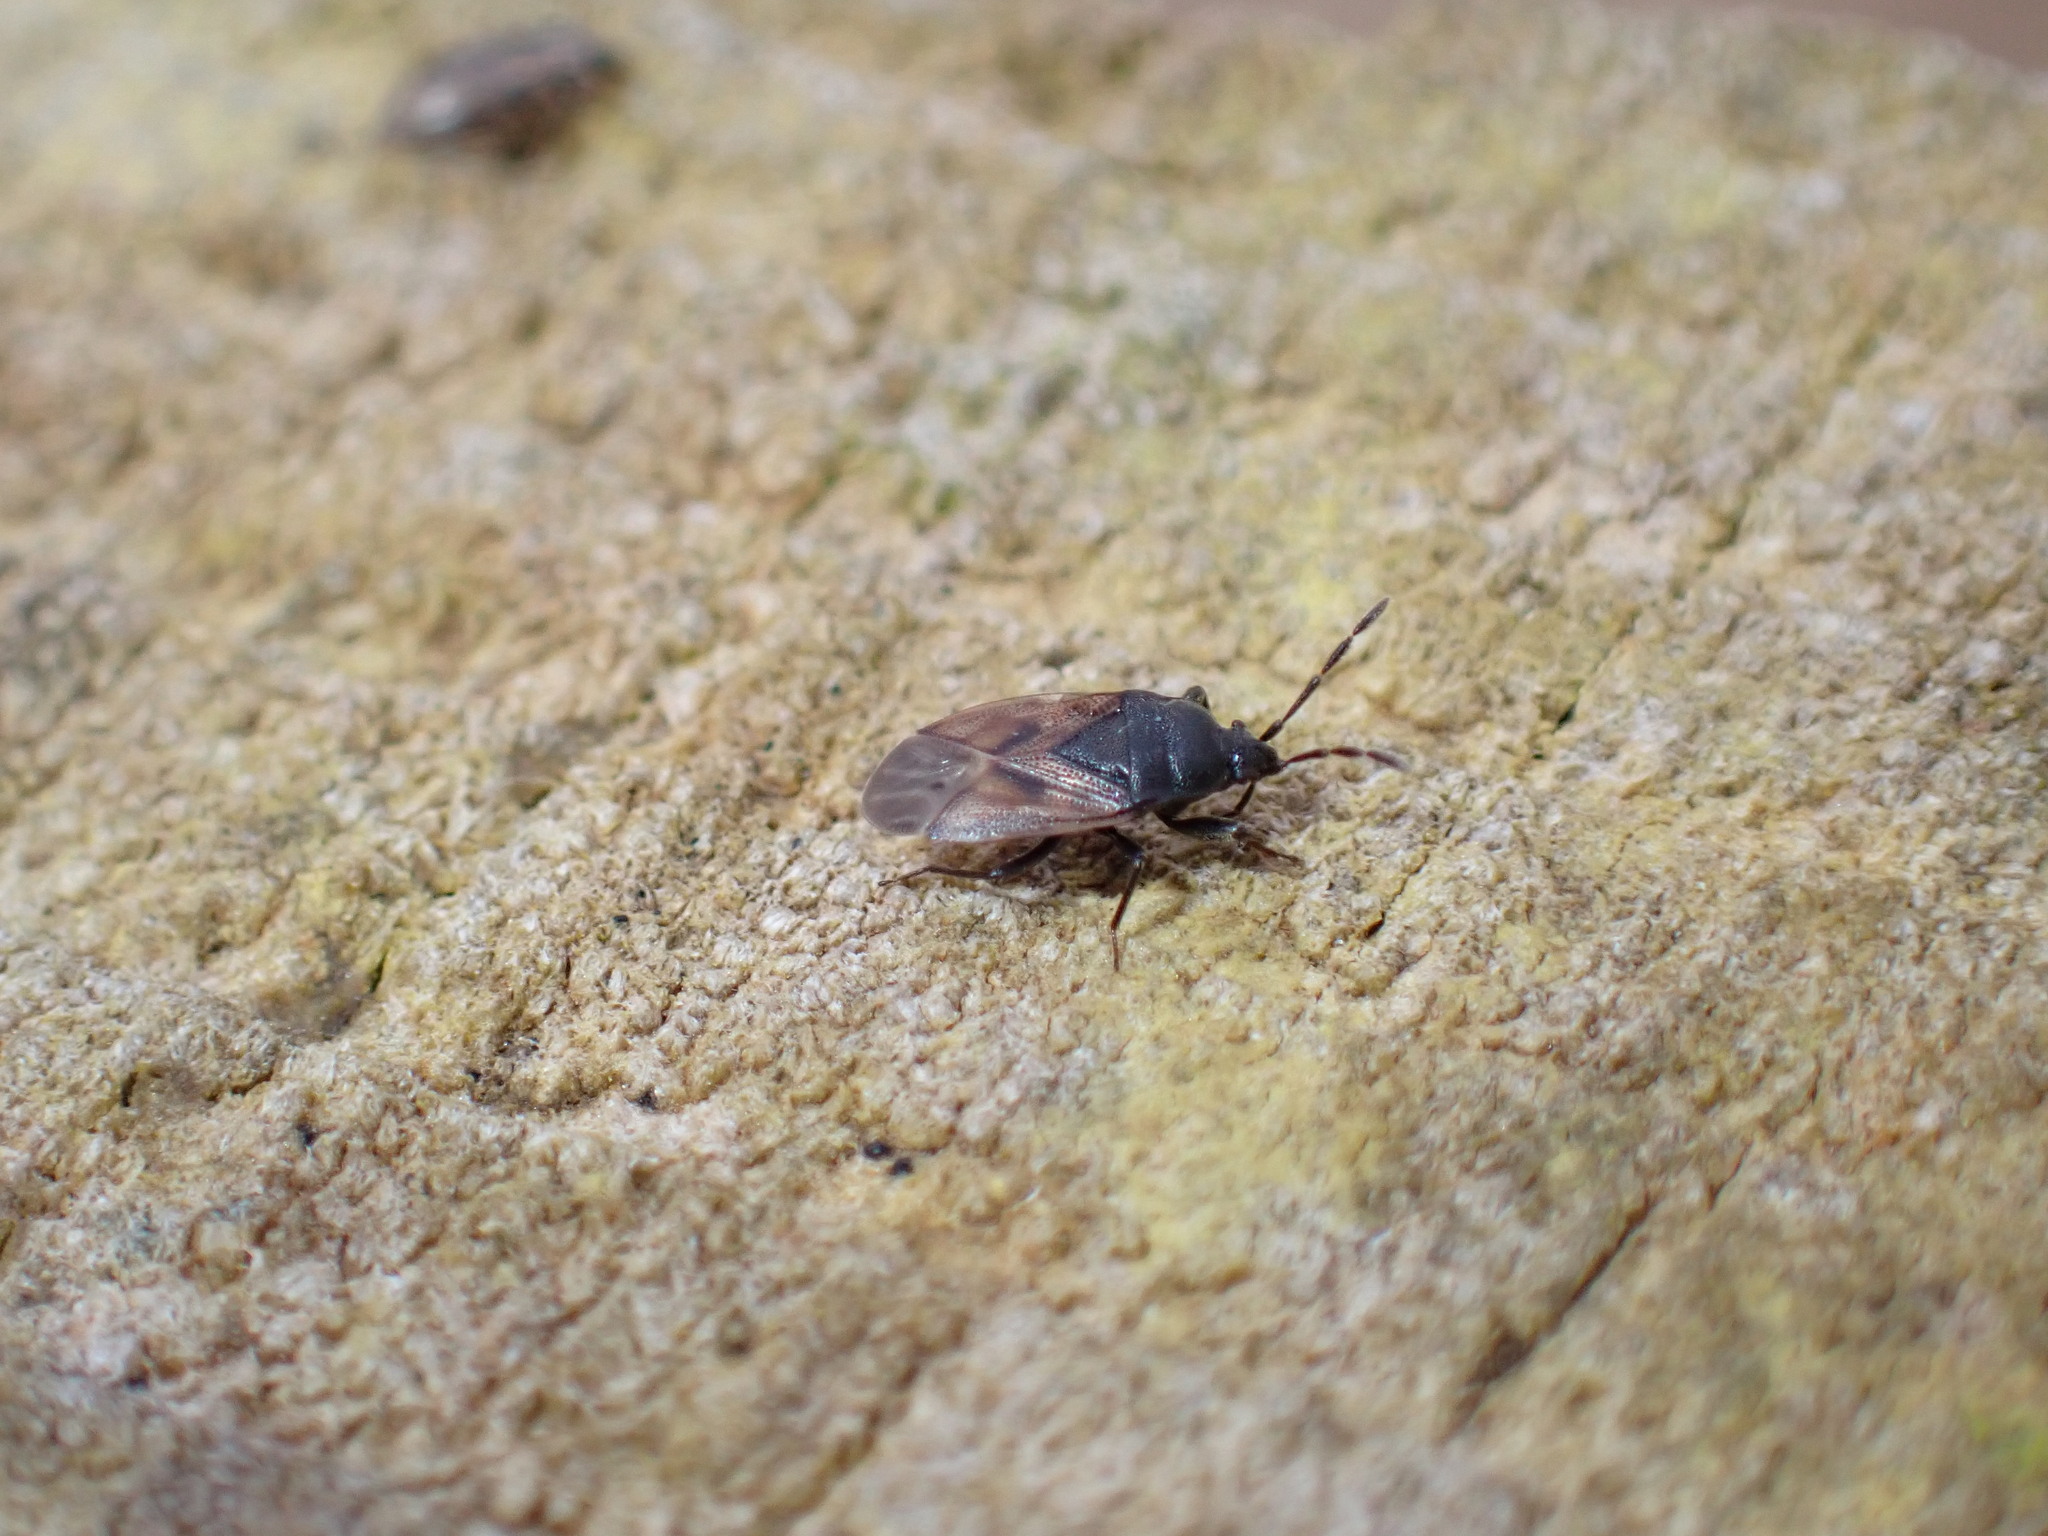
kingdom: Animalia
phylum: Arthropoda
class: Insecta
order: Hemiptera
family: Rhyparochromidae
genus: Drymus
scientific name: Drymus sylvaticus
